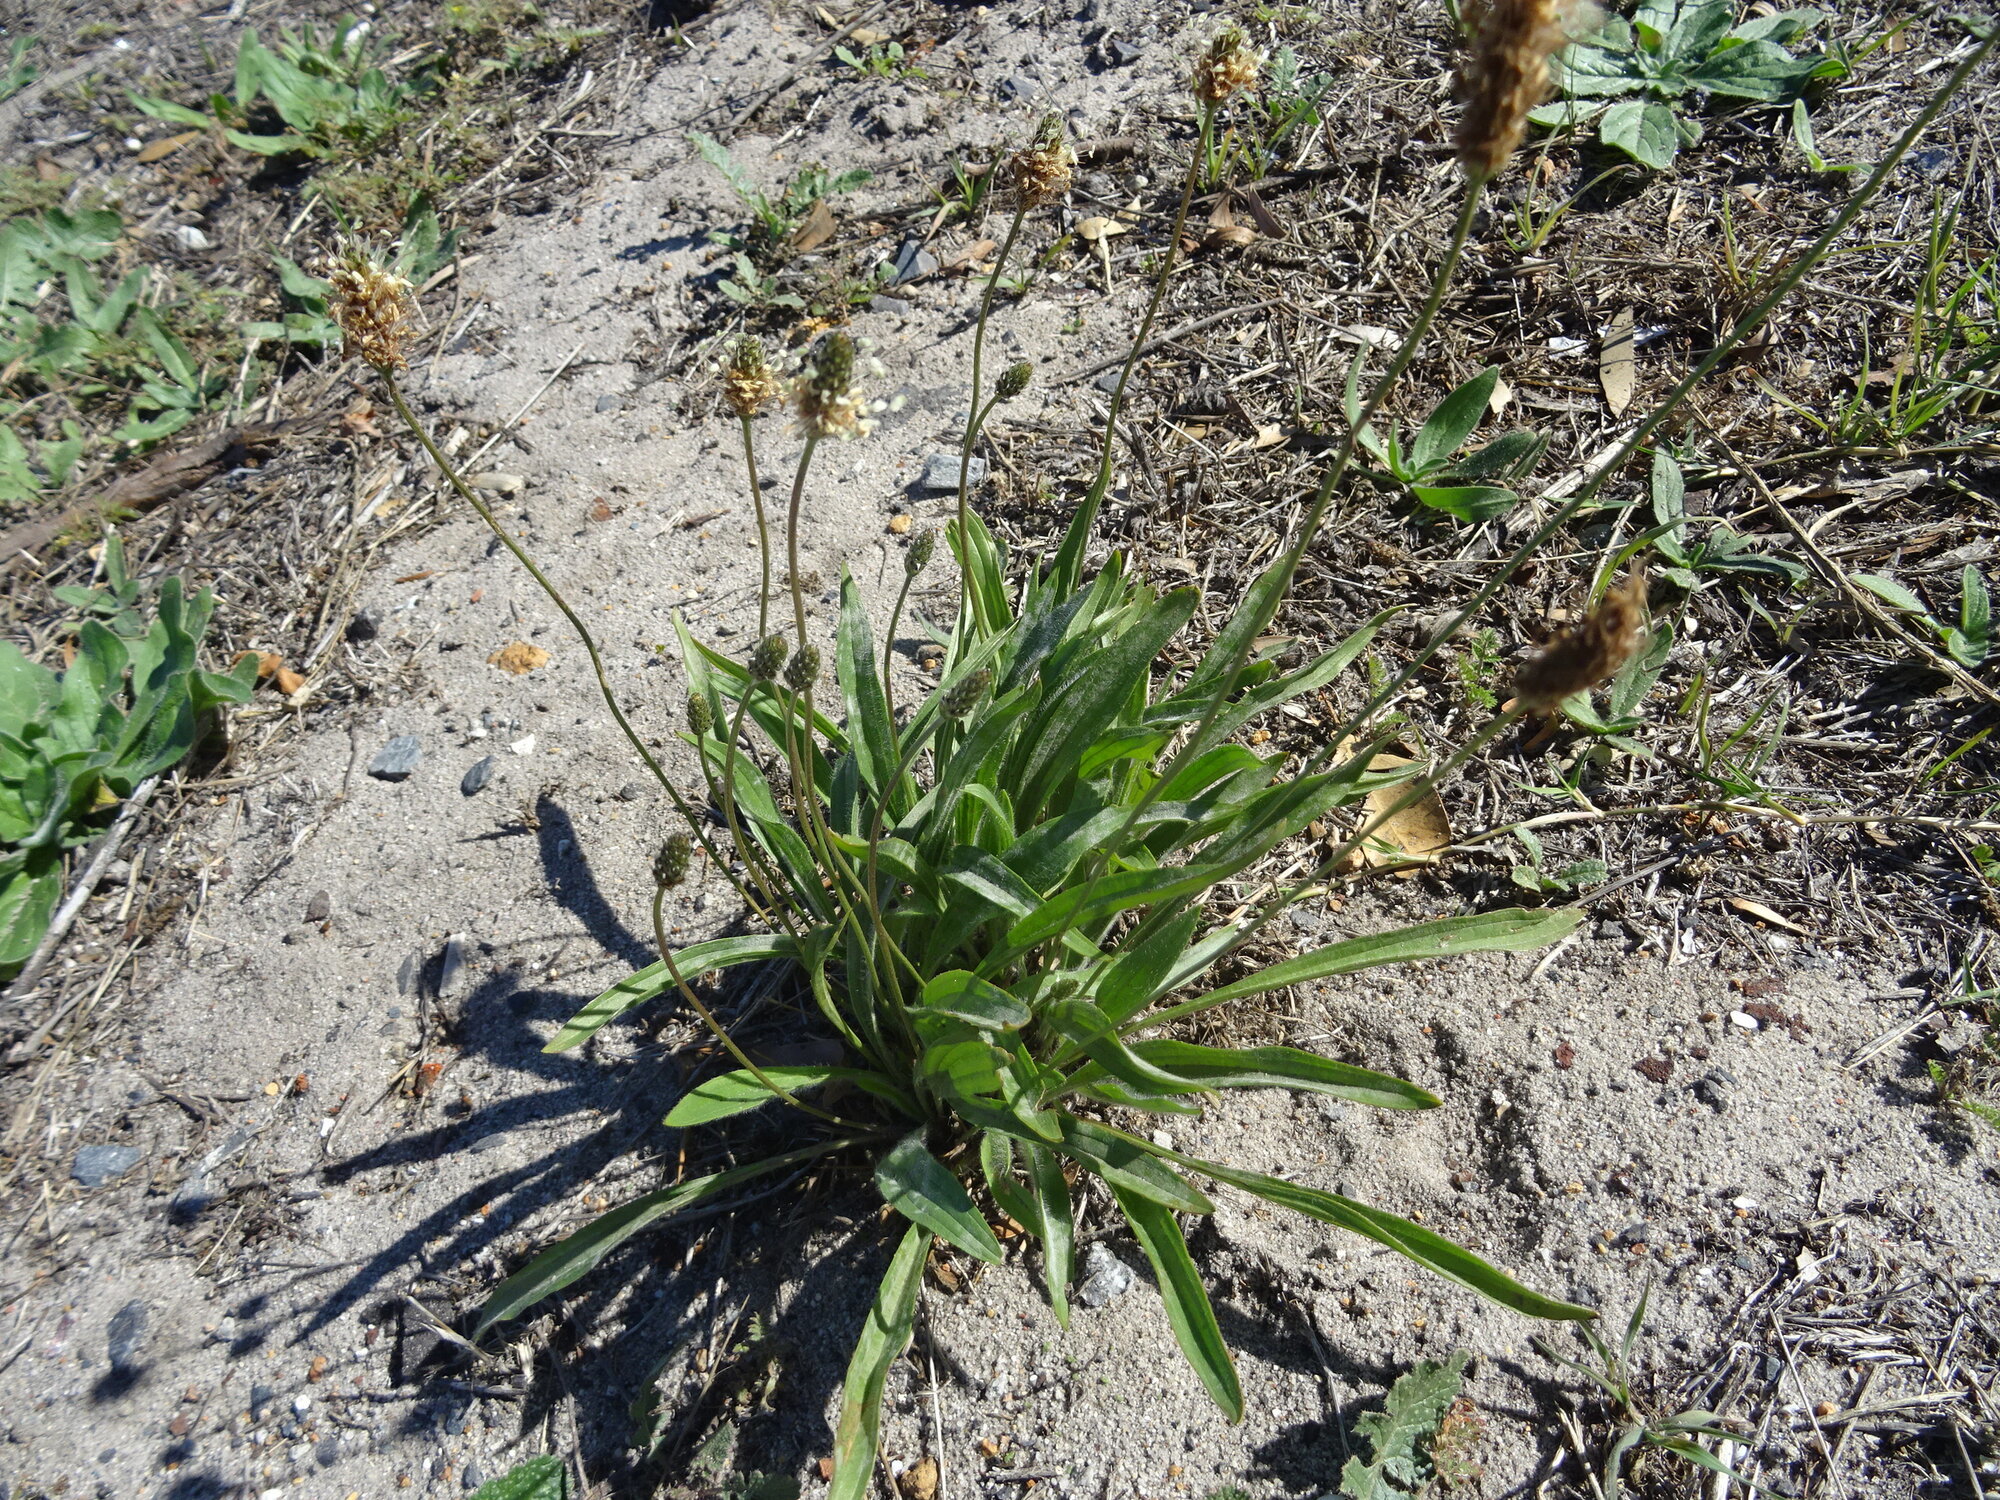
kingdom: Plantae
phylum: Tracheophyta
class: Magnoliopsida
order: Lamiales
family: Plantaginaceae
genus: Plantago
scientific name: Plantago lanceolata
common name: Ribwort plantain
